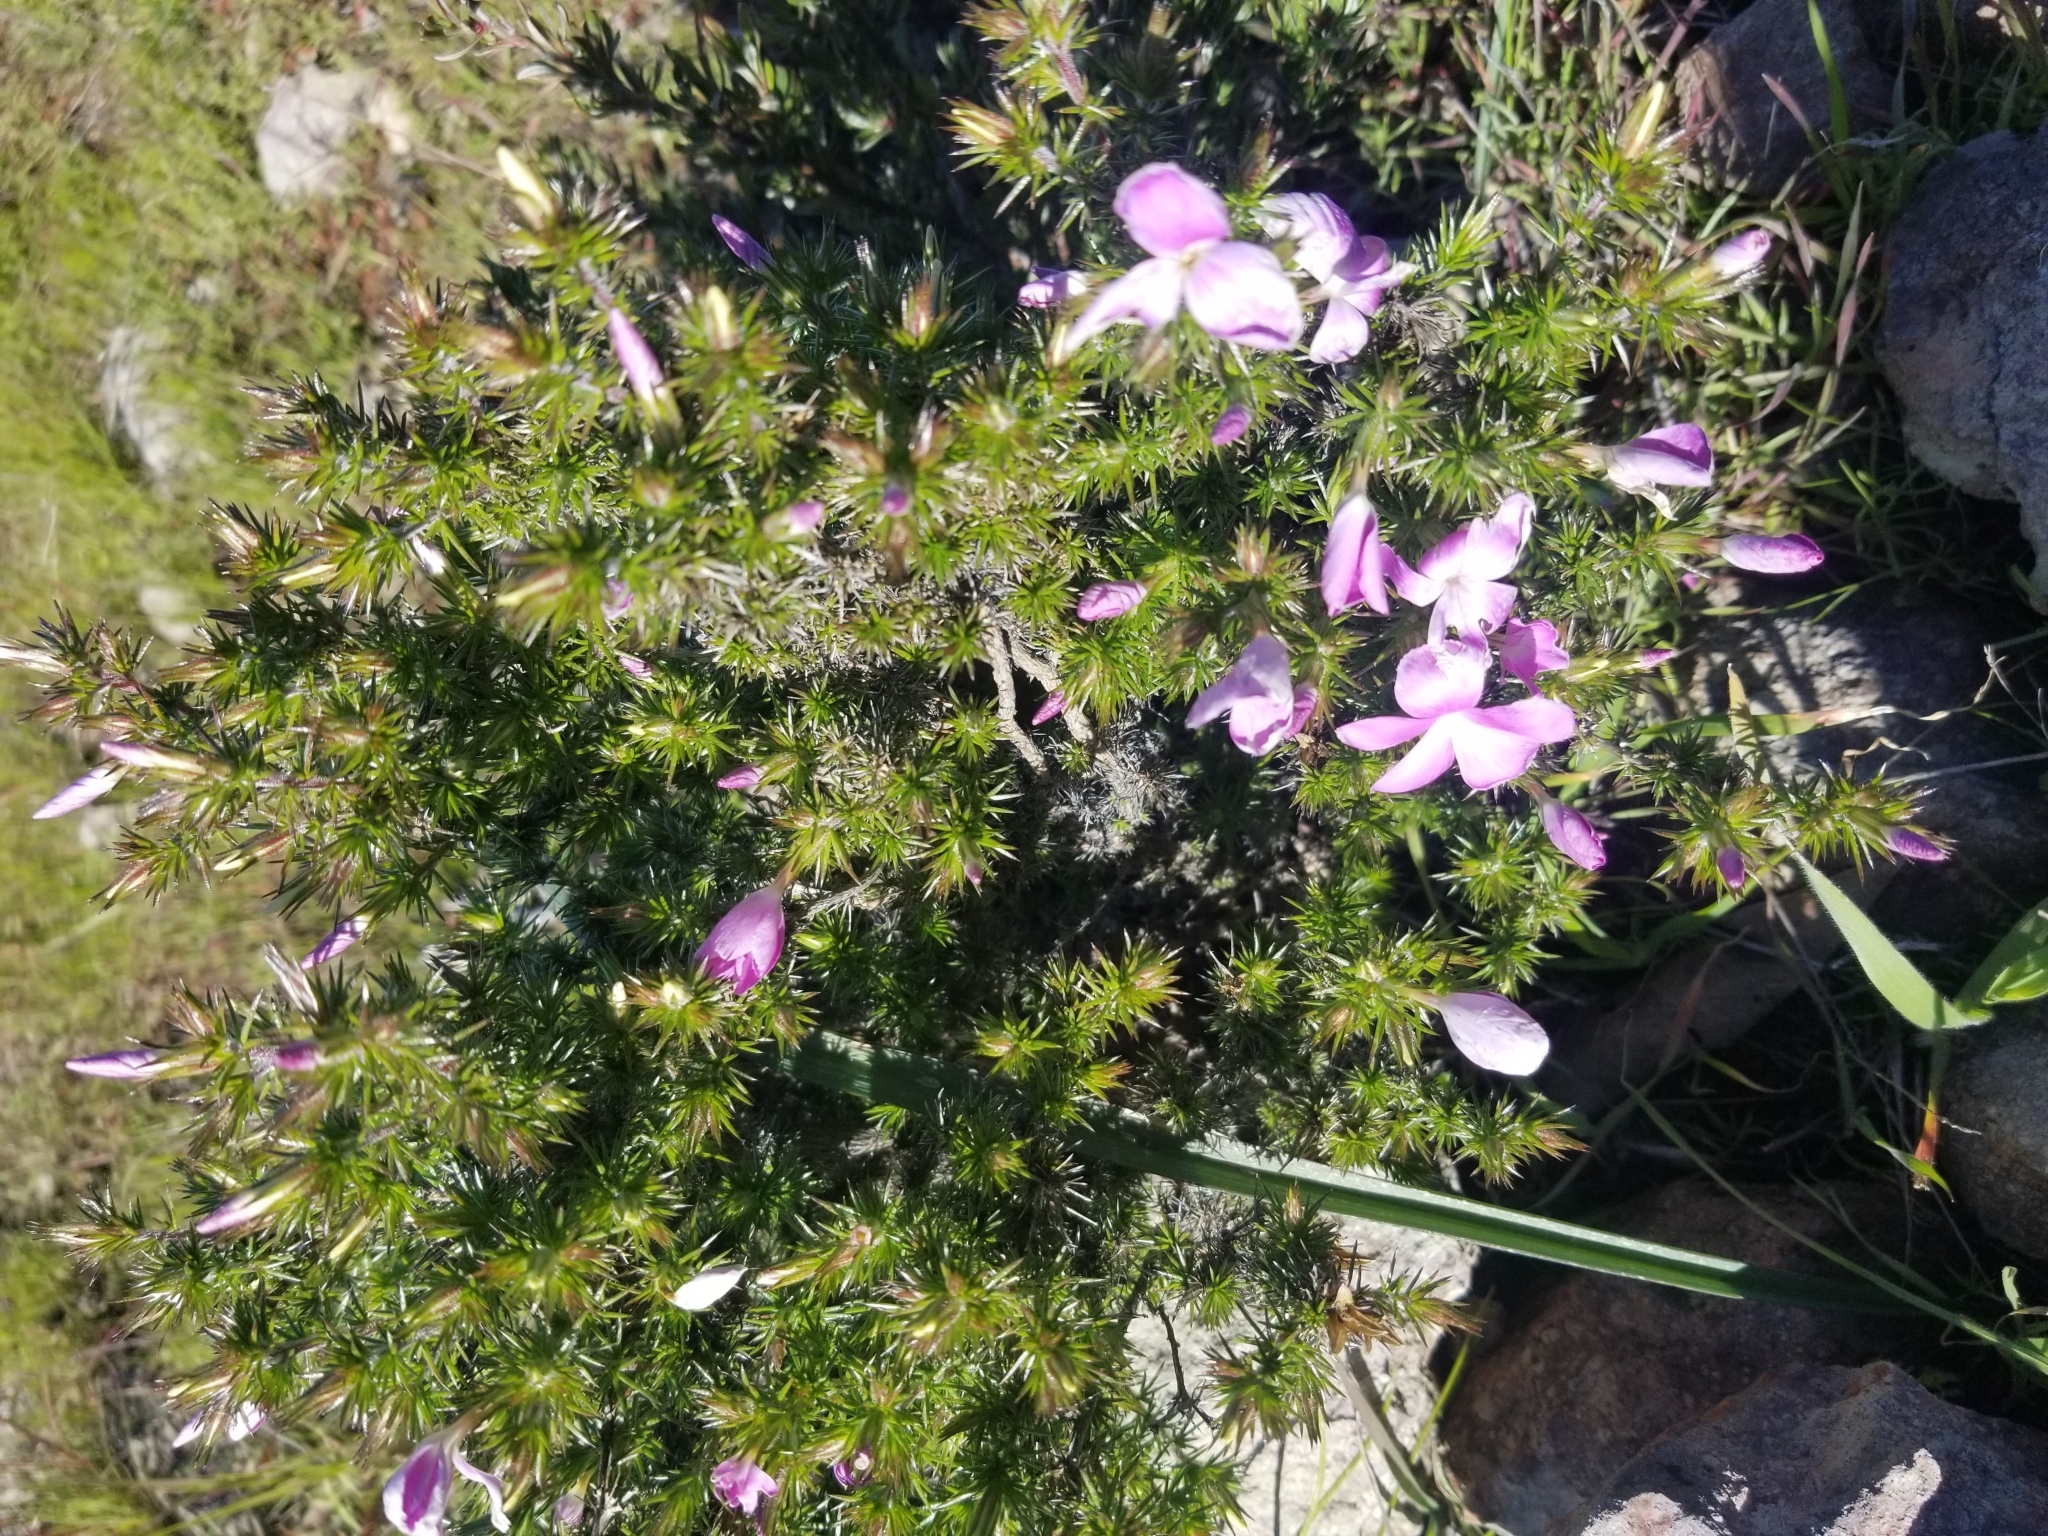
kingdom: Plantae
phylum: Tracheophyta
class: Magnoliopsida
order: Ericales
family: Polemoniaceae
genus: Linanthus
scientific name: Linanthus californicus
